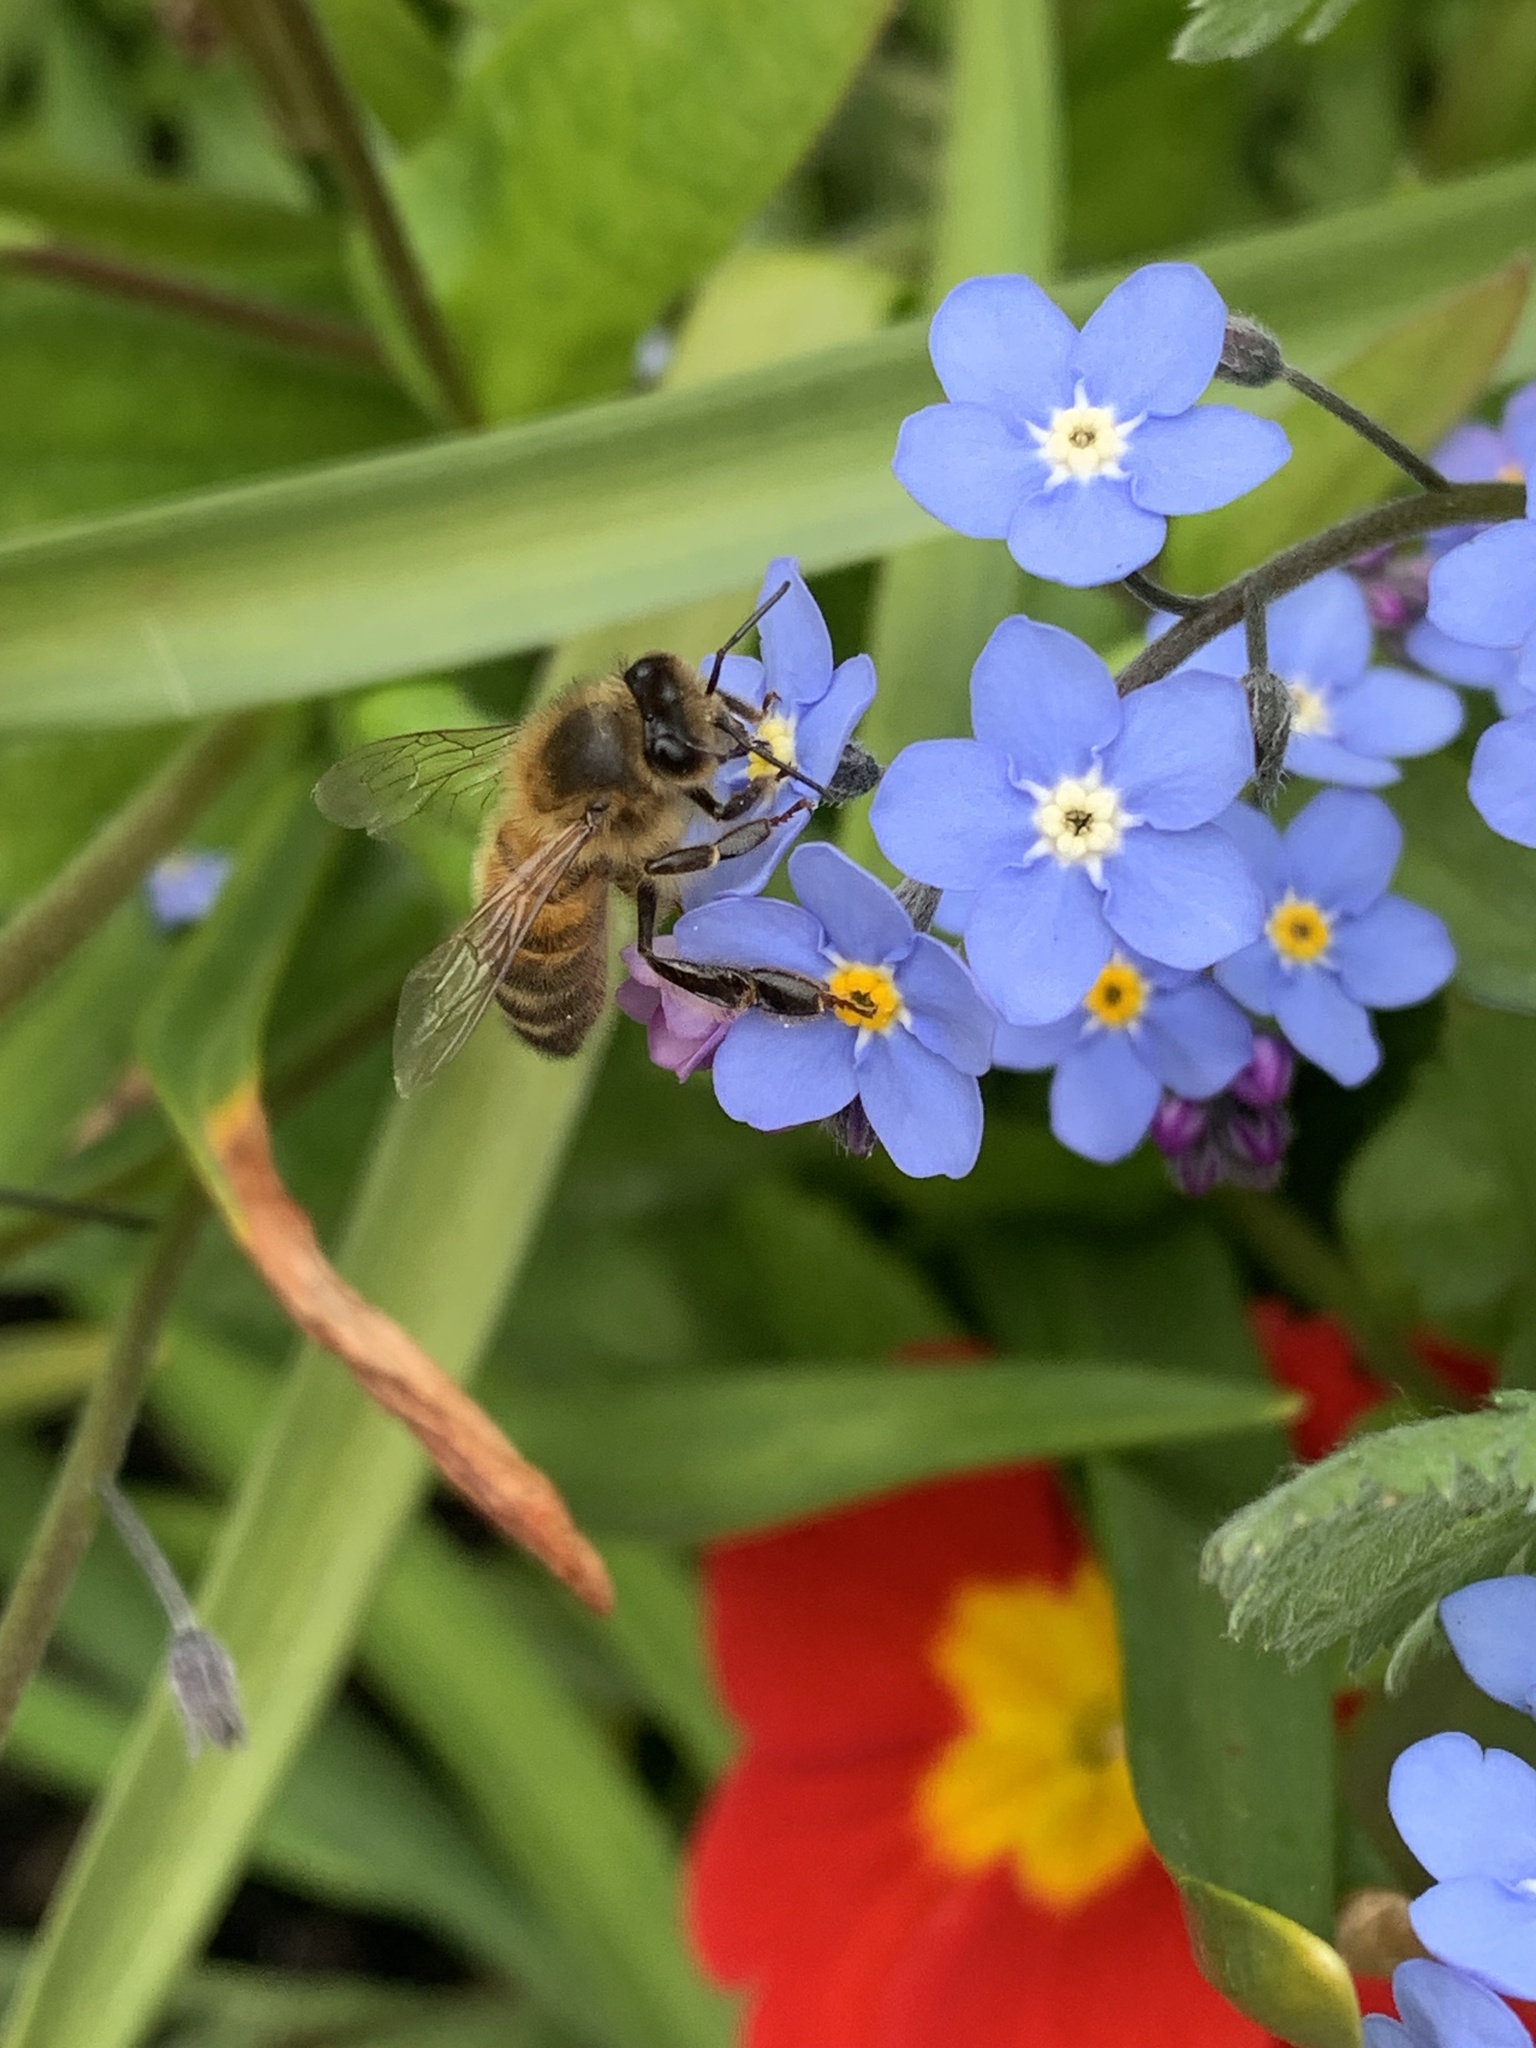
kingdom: Animalia
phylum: Arthropoda
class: Insecta
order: Hymenoptera
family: Apidae
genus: Apis
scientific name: Apis mellifera
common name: Honey bee
